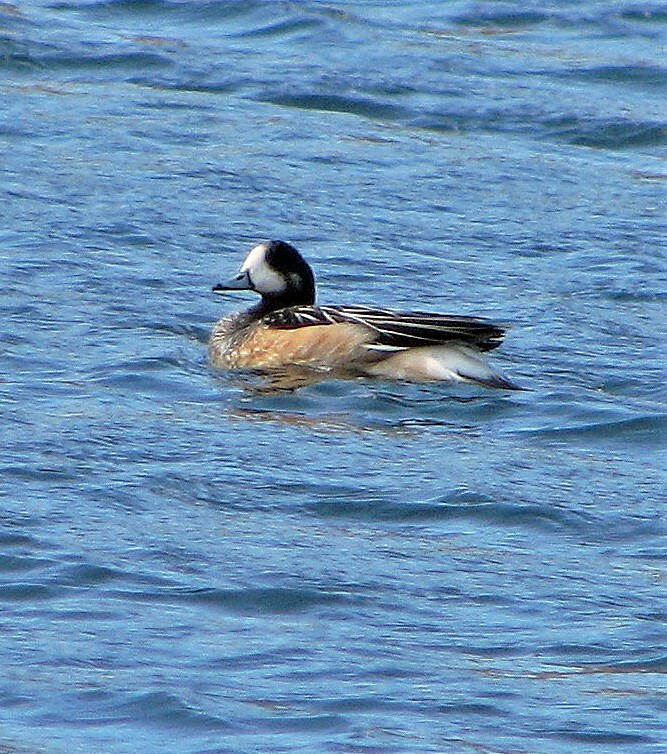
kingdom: Animalia
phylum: Chordata
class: Aves
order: Anseriformes
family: Anatidae
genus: Mareca
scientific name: Mareca sibilatrix
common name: Chiloe wigeon
